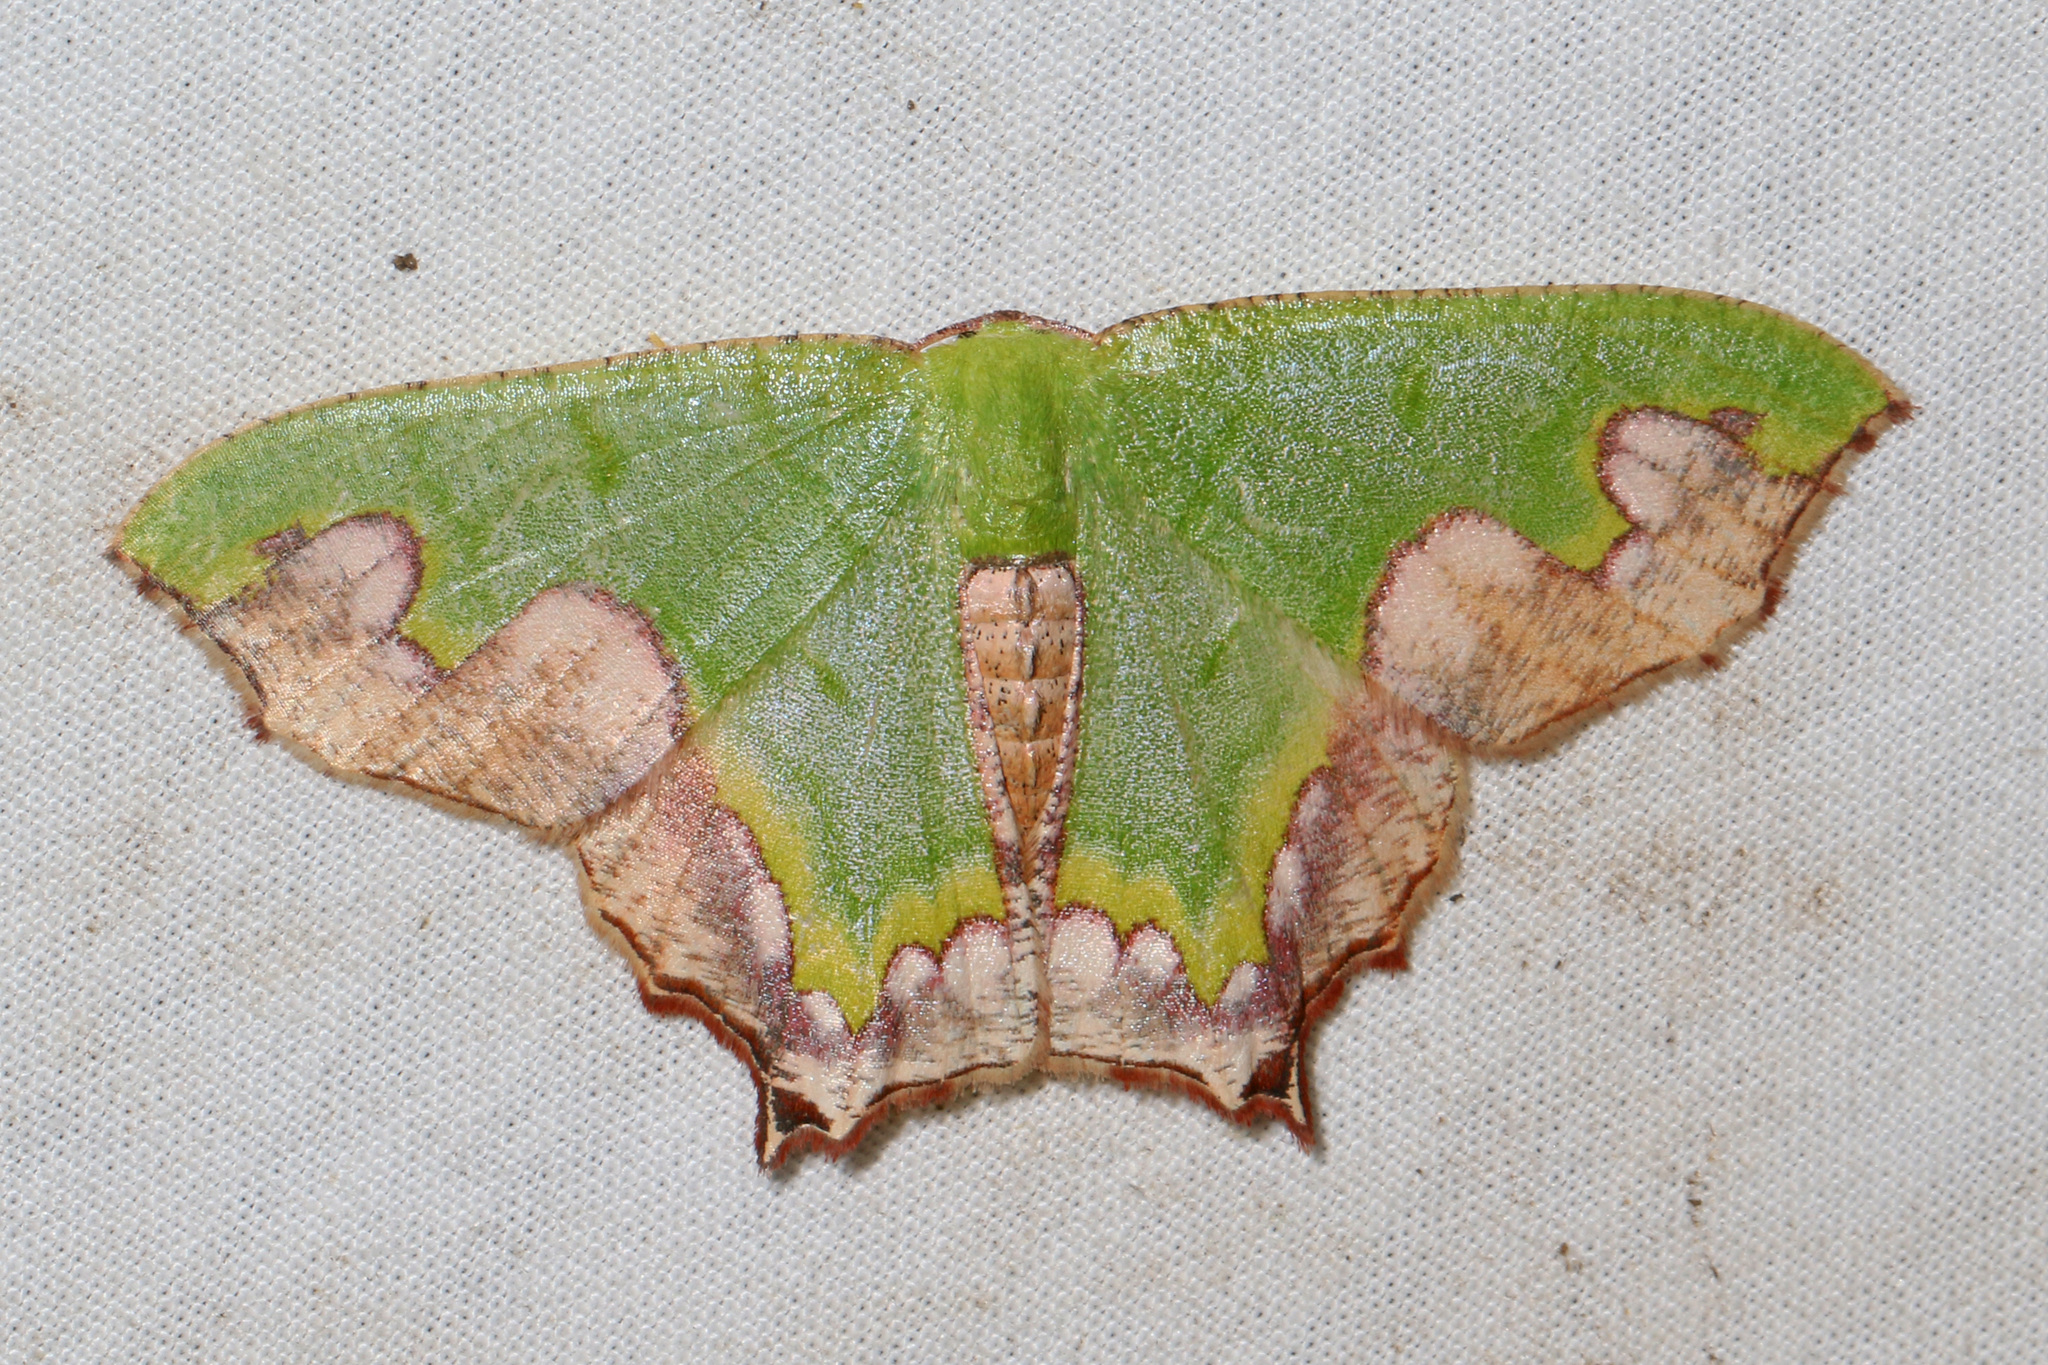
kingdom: Animalia
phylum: Arthropoda
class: Insecta
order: Lepidoptera
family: Geometridae
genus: Antharmostes
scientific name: Antharmostes papilio
